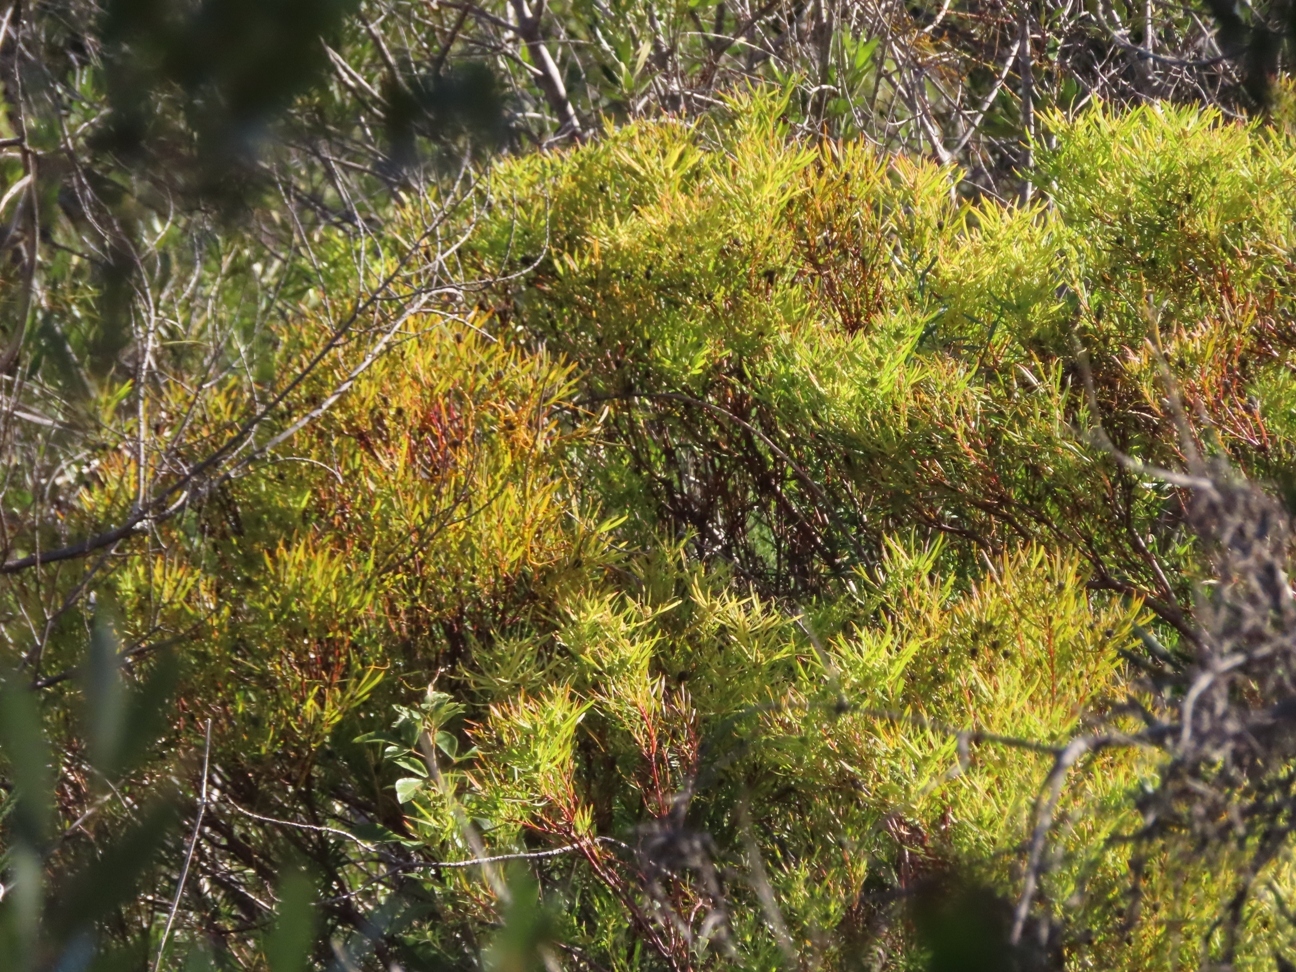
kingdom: Plantae
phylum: Tracheophyta
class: Magnoliopsida
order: Proteales
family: Proteaceae
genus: Leucadendron
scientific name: Leucadendron salignum
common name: Common sunshine conebush
